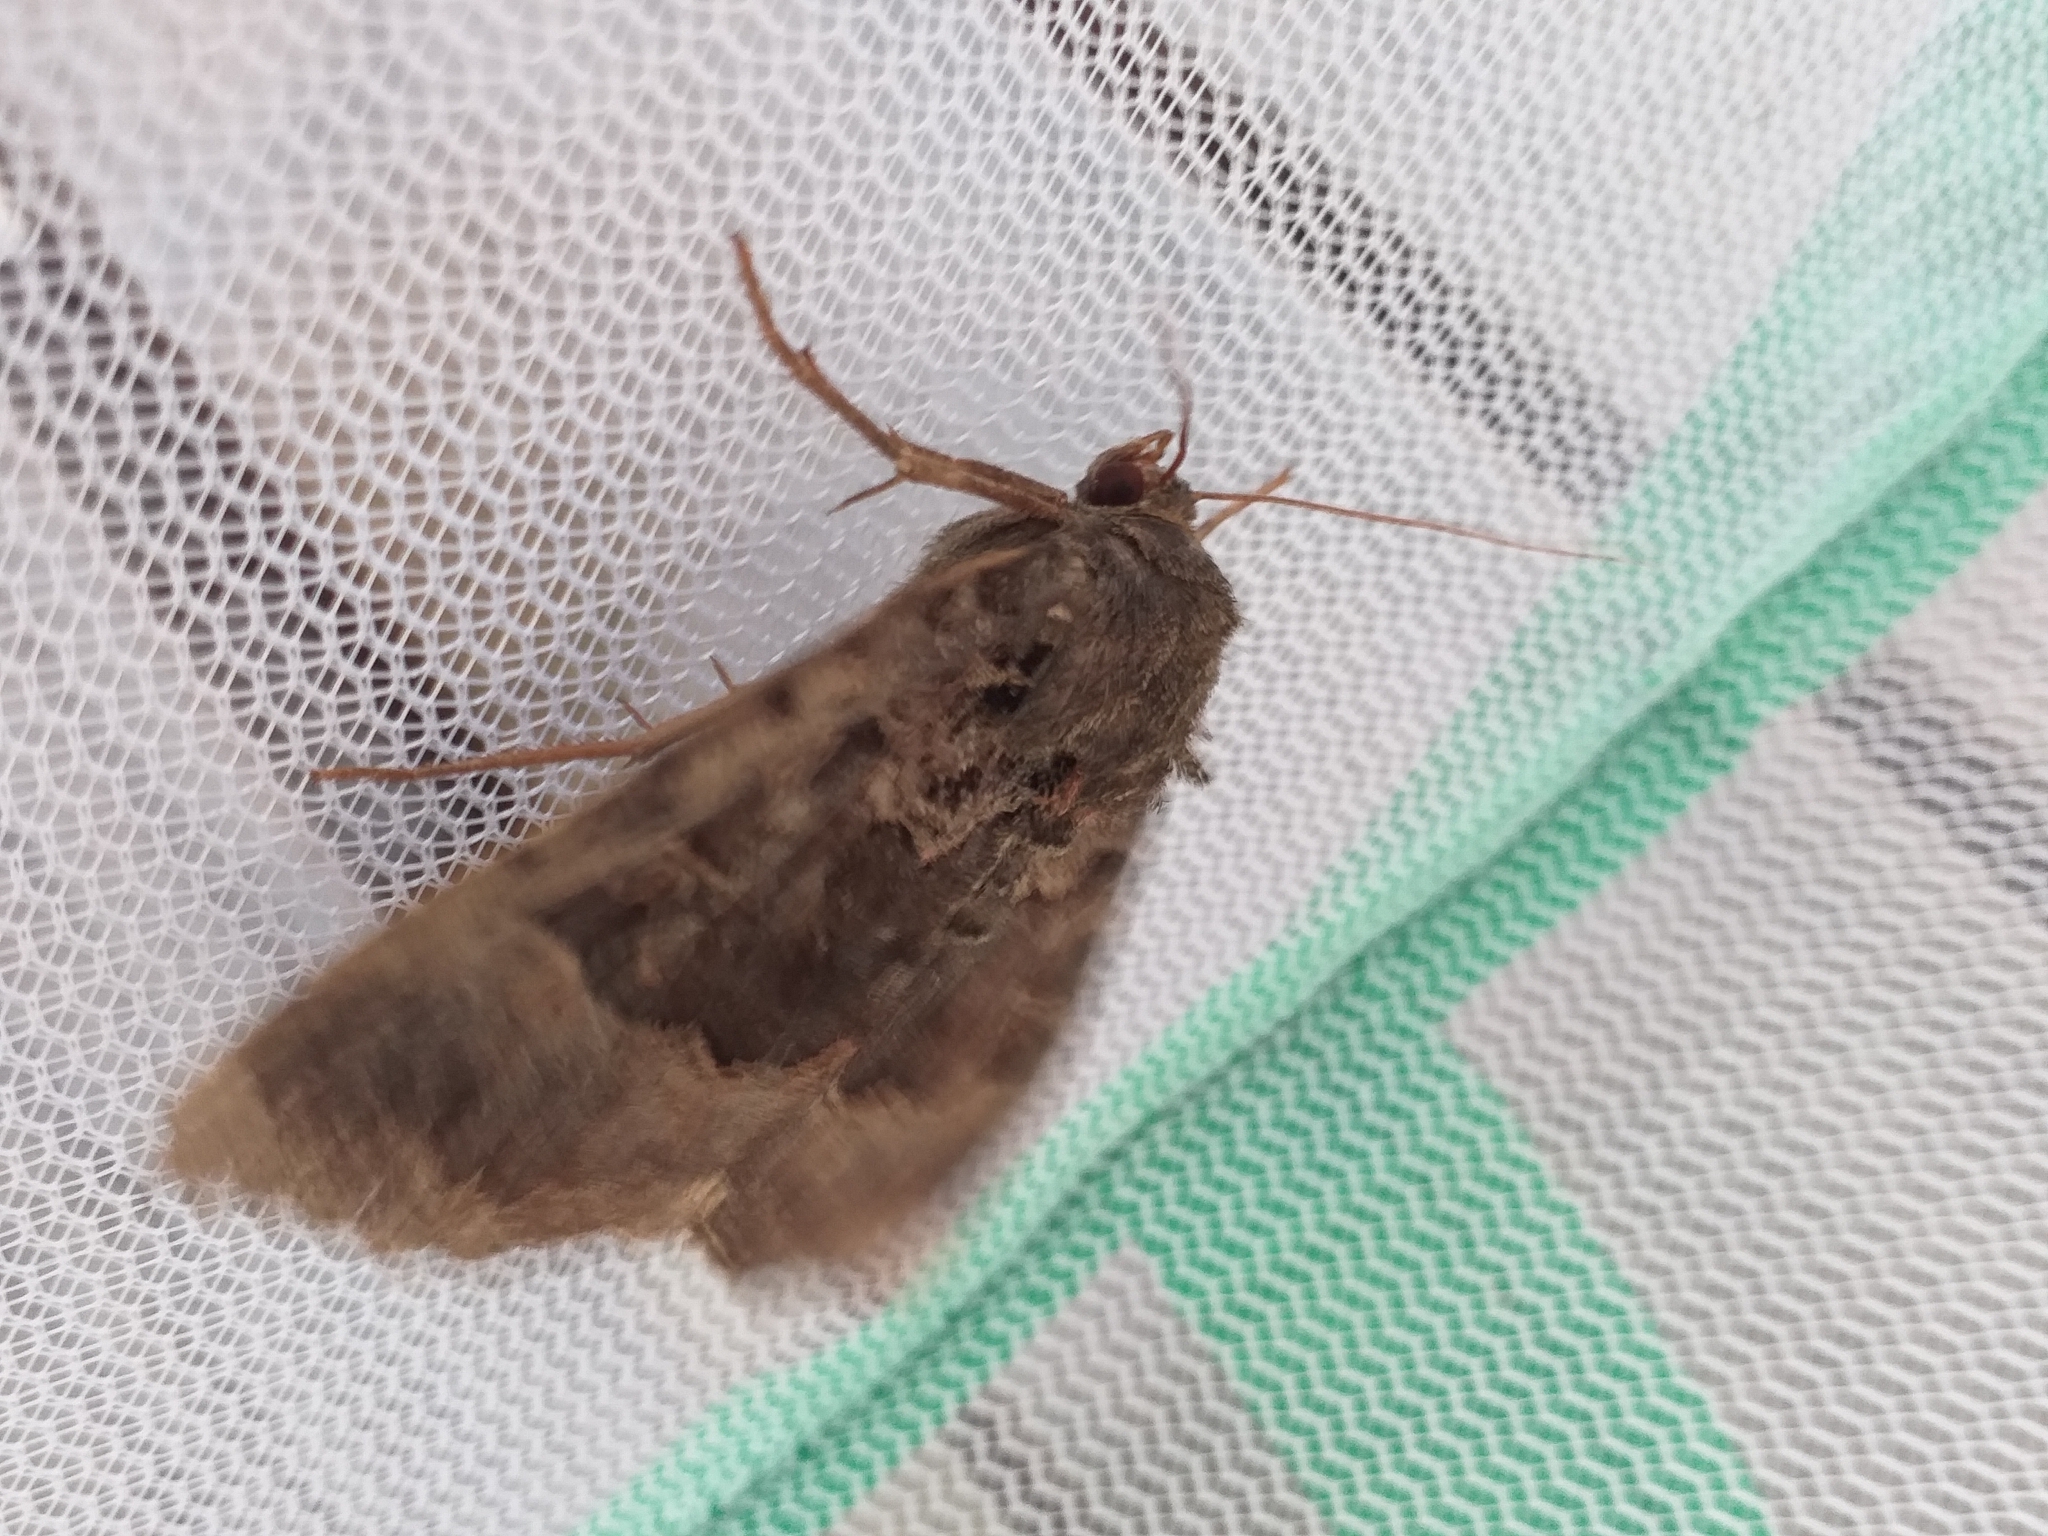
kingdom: Animalia
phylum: Arthropoda
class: Insecta
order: Lepidoptera
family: Noctuidae
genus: Mormo
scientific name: Mormo maura
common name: Old lady
